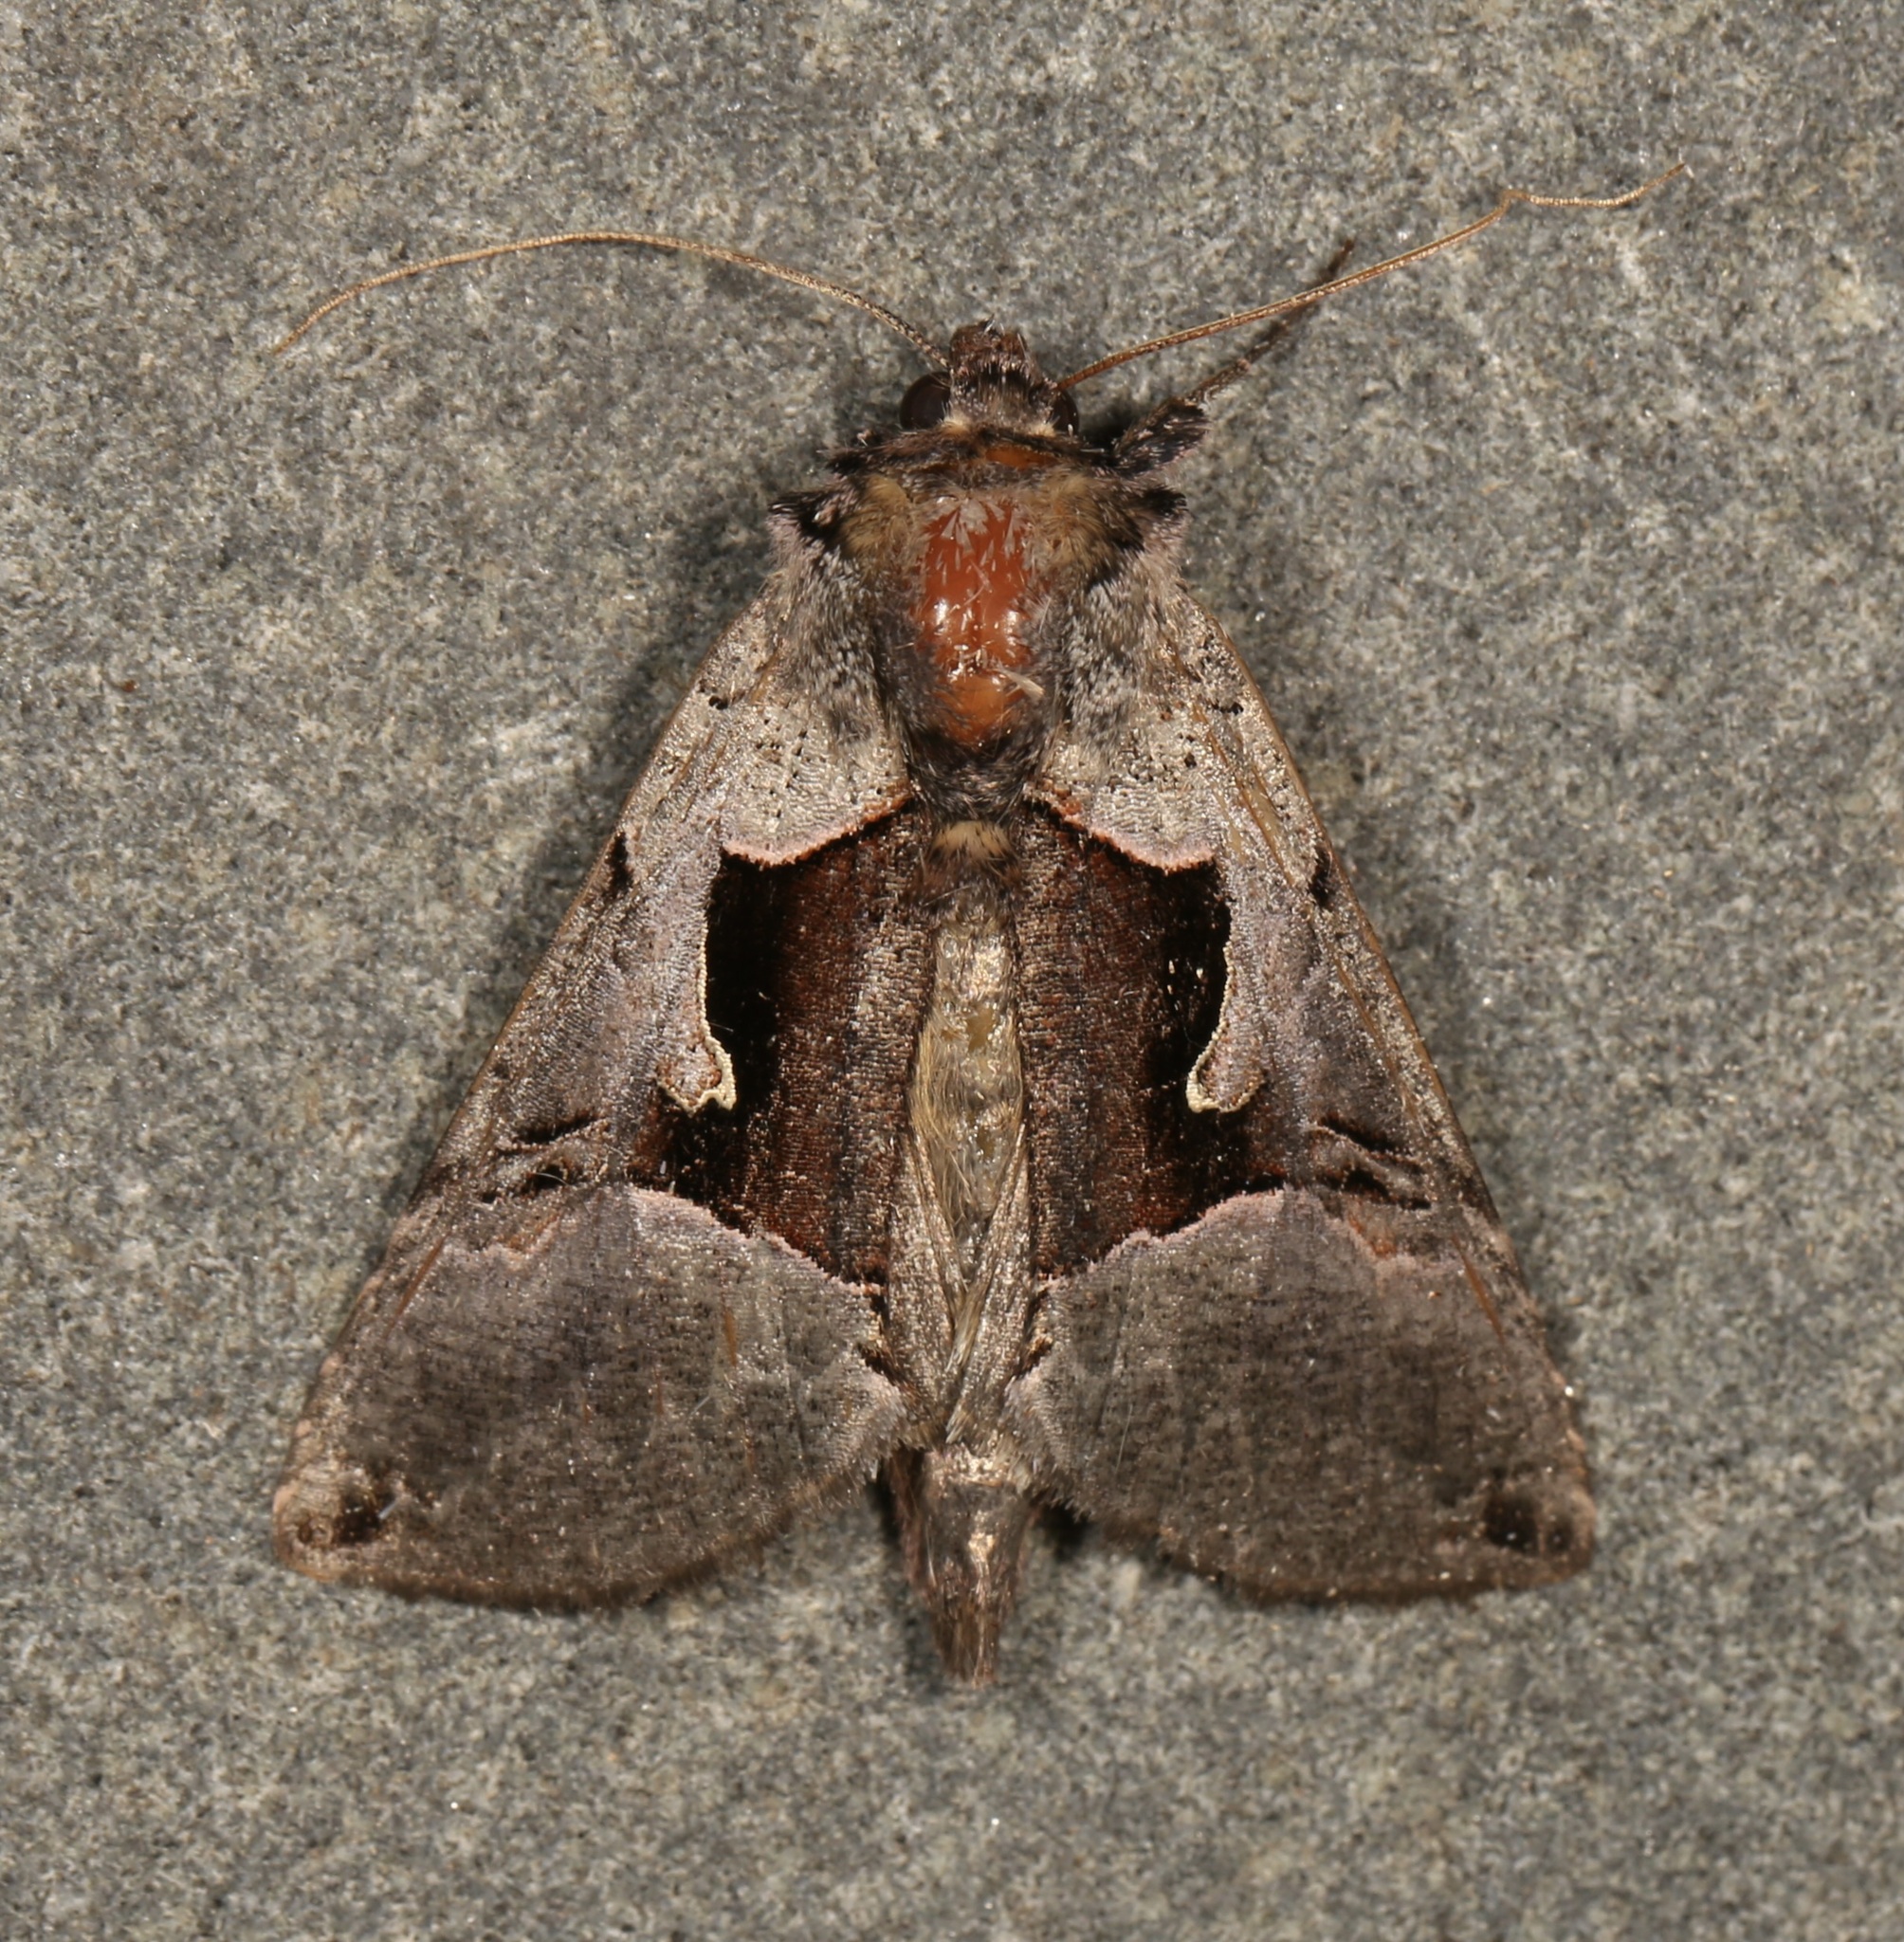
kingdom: Animalia
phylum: Arthropoda
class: Insecta
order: Lepidoptera
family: Noctuidae
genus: Autographa
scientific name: Autographa ampla
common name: Large looper moth
